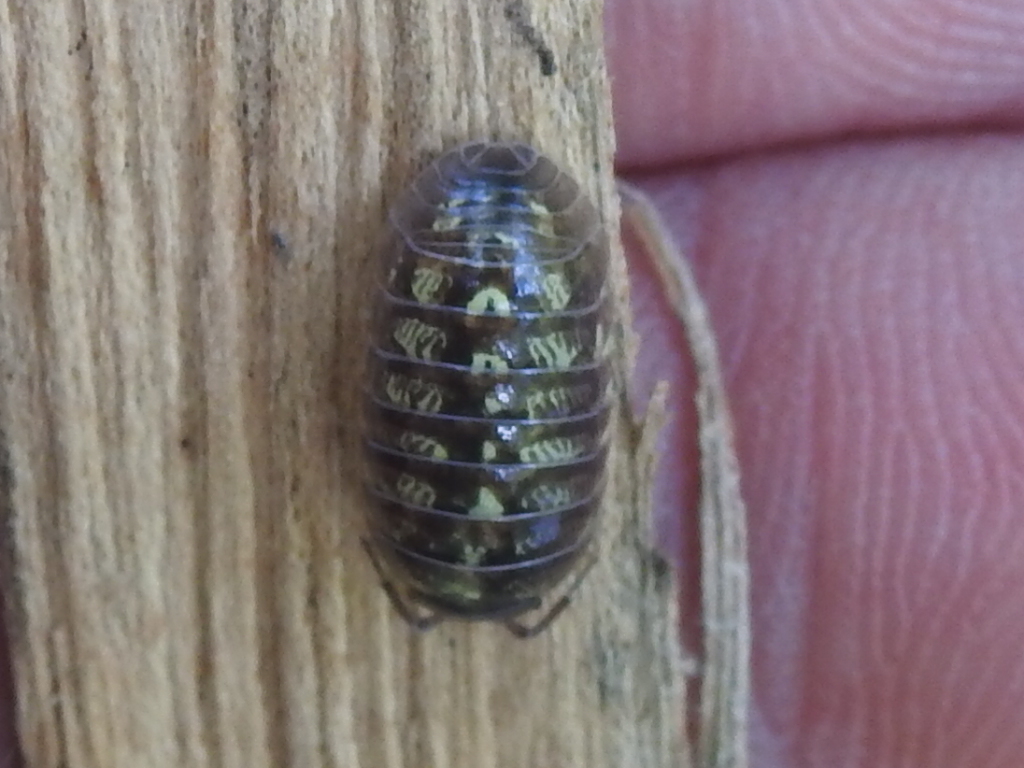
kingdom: Animalia
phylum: Arthropoda
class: Malacostraca
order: Isopoda
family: Armadillidiidae
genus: Armadillidium
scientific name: Armadillidium vulgare
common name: Common pill woodlouse
